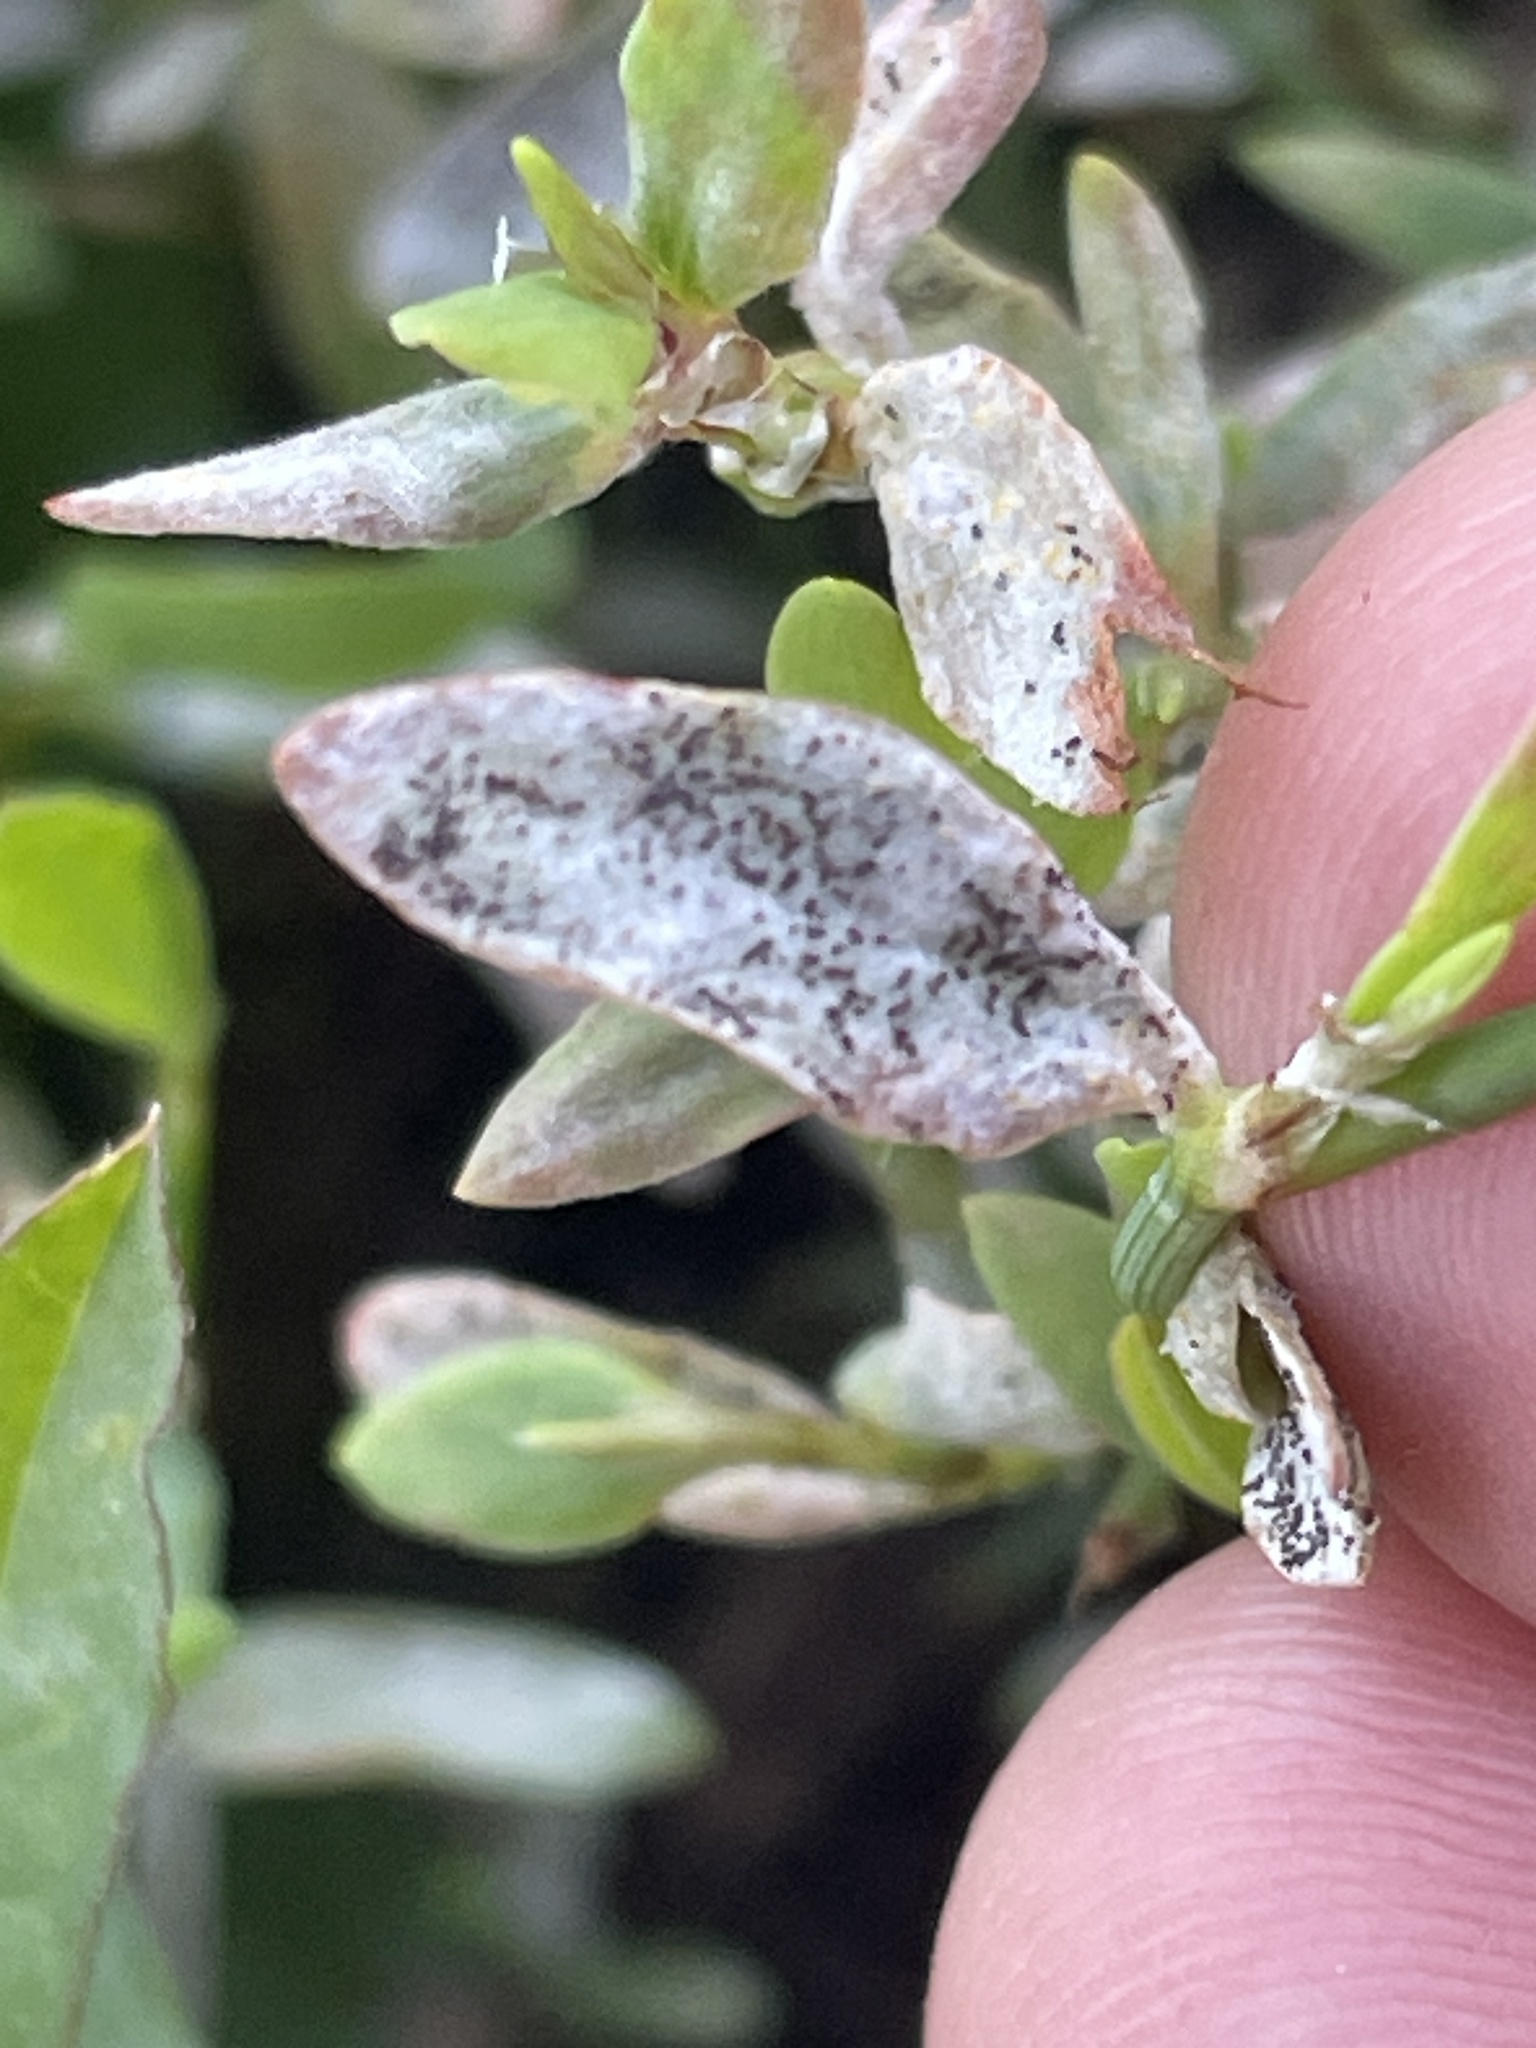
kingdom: Fungi
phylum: Ascomycota
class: Leotiomycetes
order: Helotiales
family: Erysiphaceae
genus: Erysiphe
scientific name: Erysiphe polygoni
